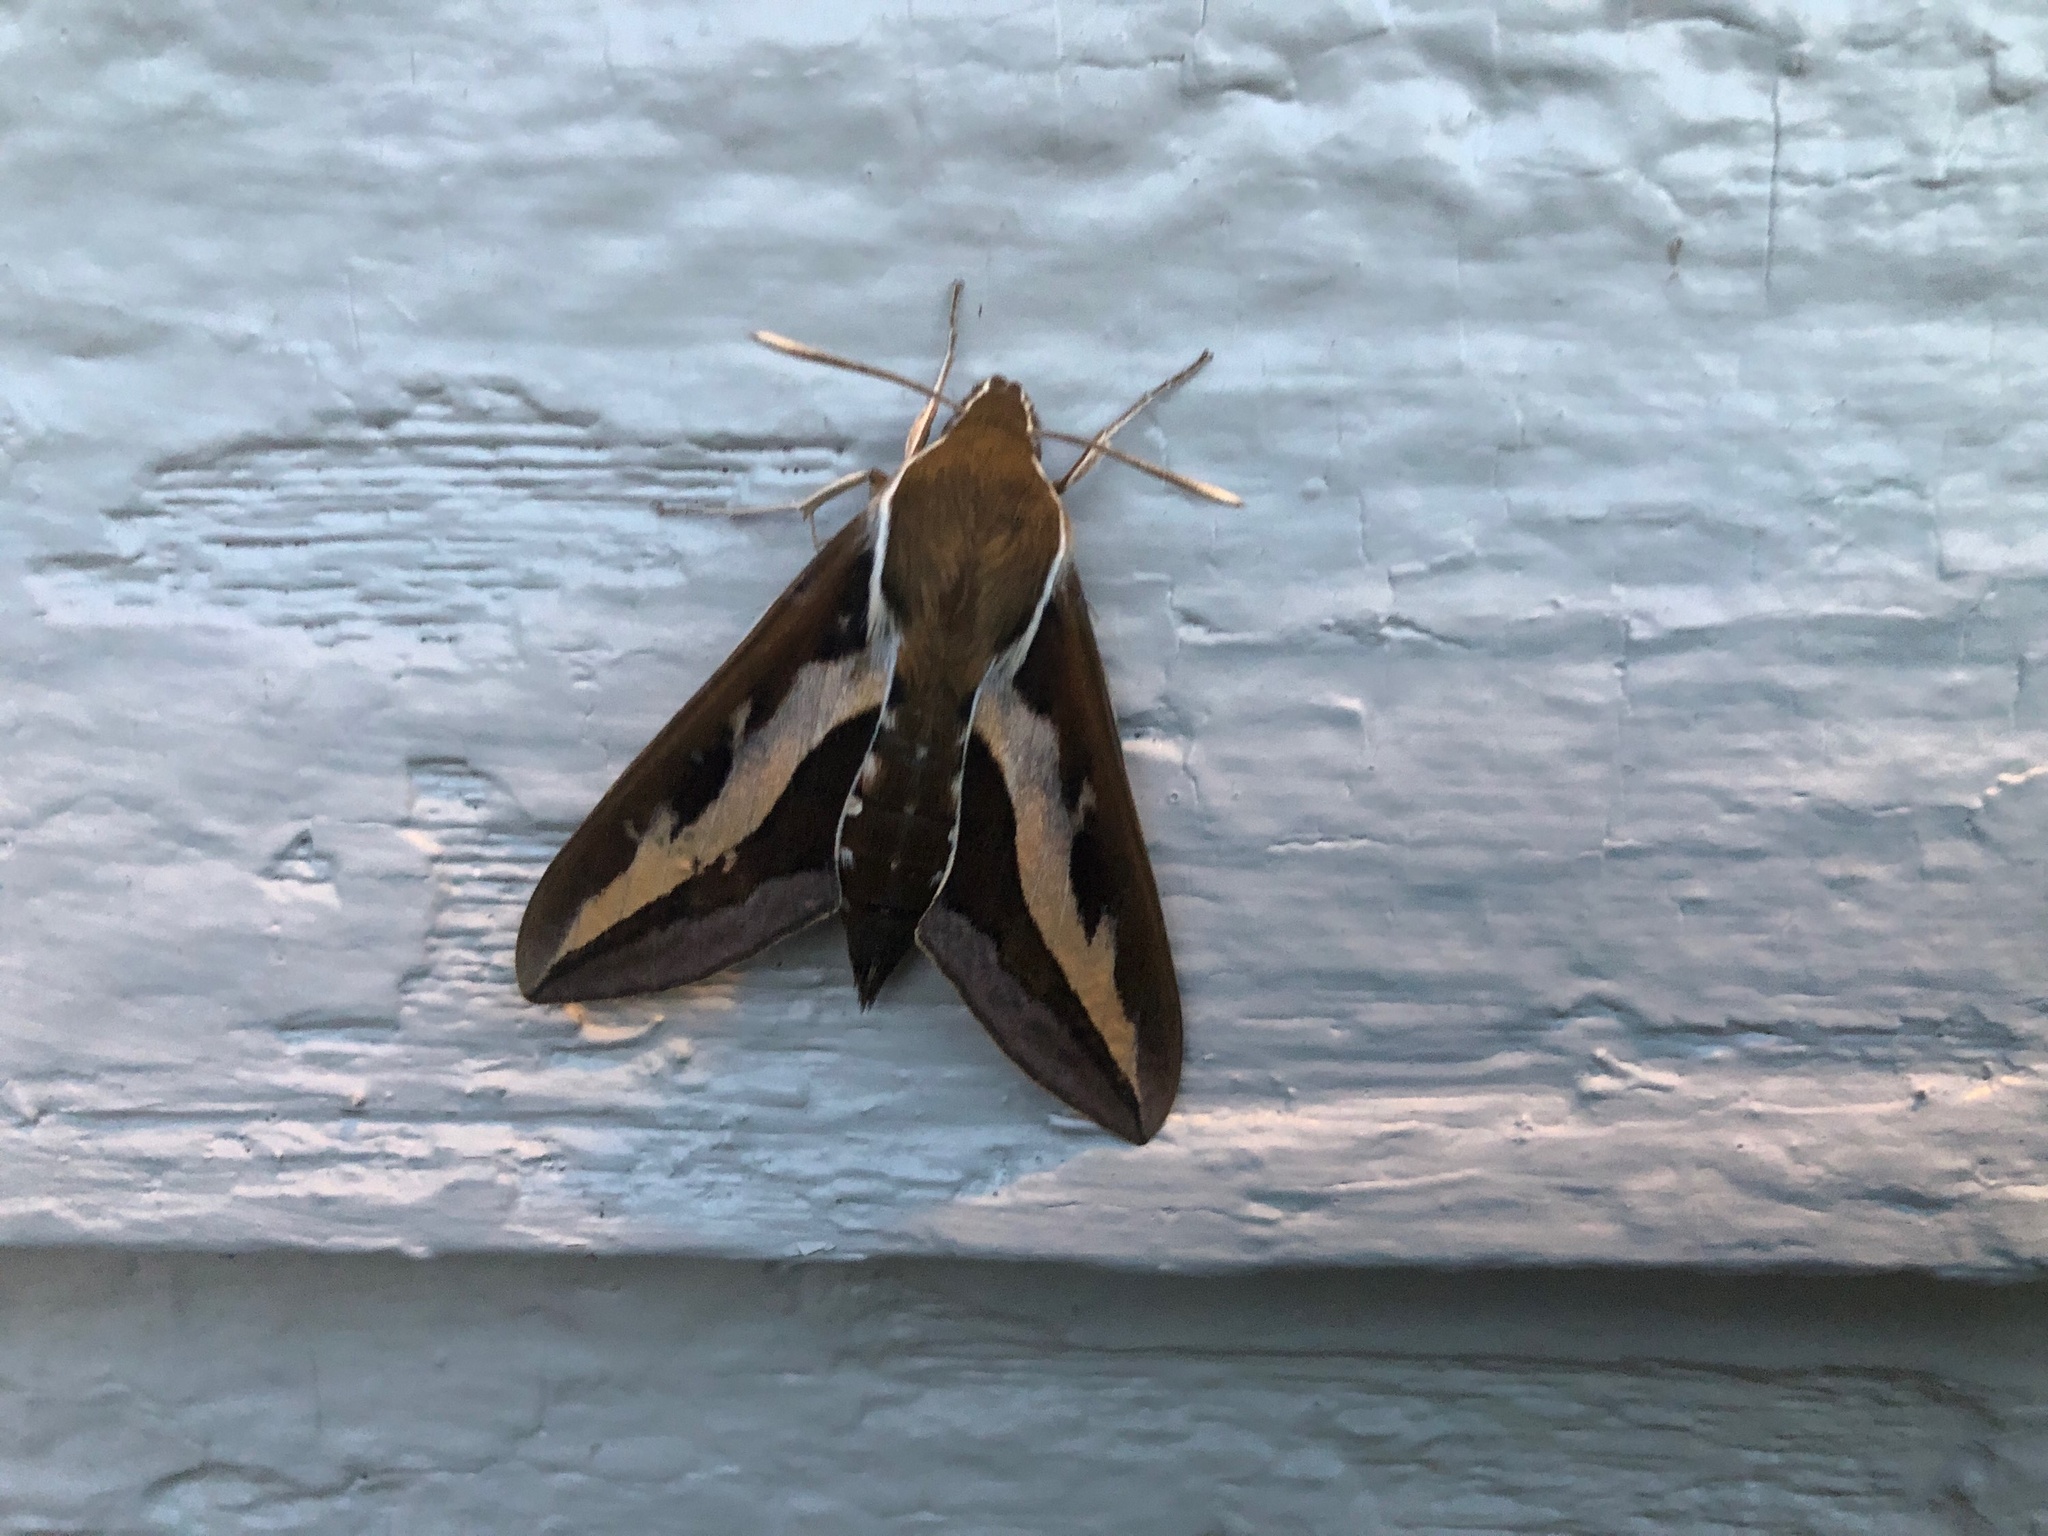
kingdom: Animalia
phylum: Arthropoda
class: Insecta
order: Lepidoptera
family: Sphingidae
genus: Hyles
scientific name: Hyles gallii
